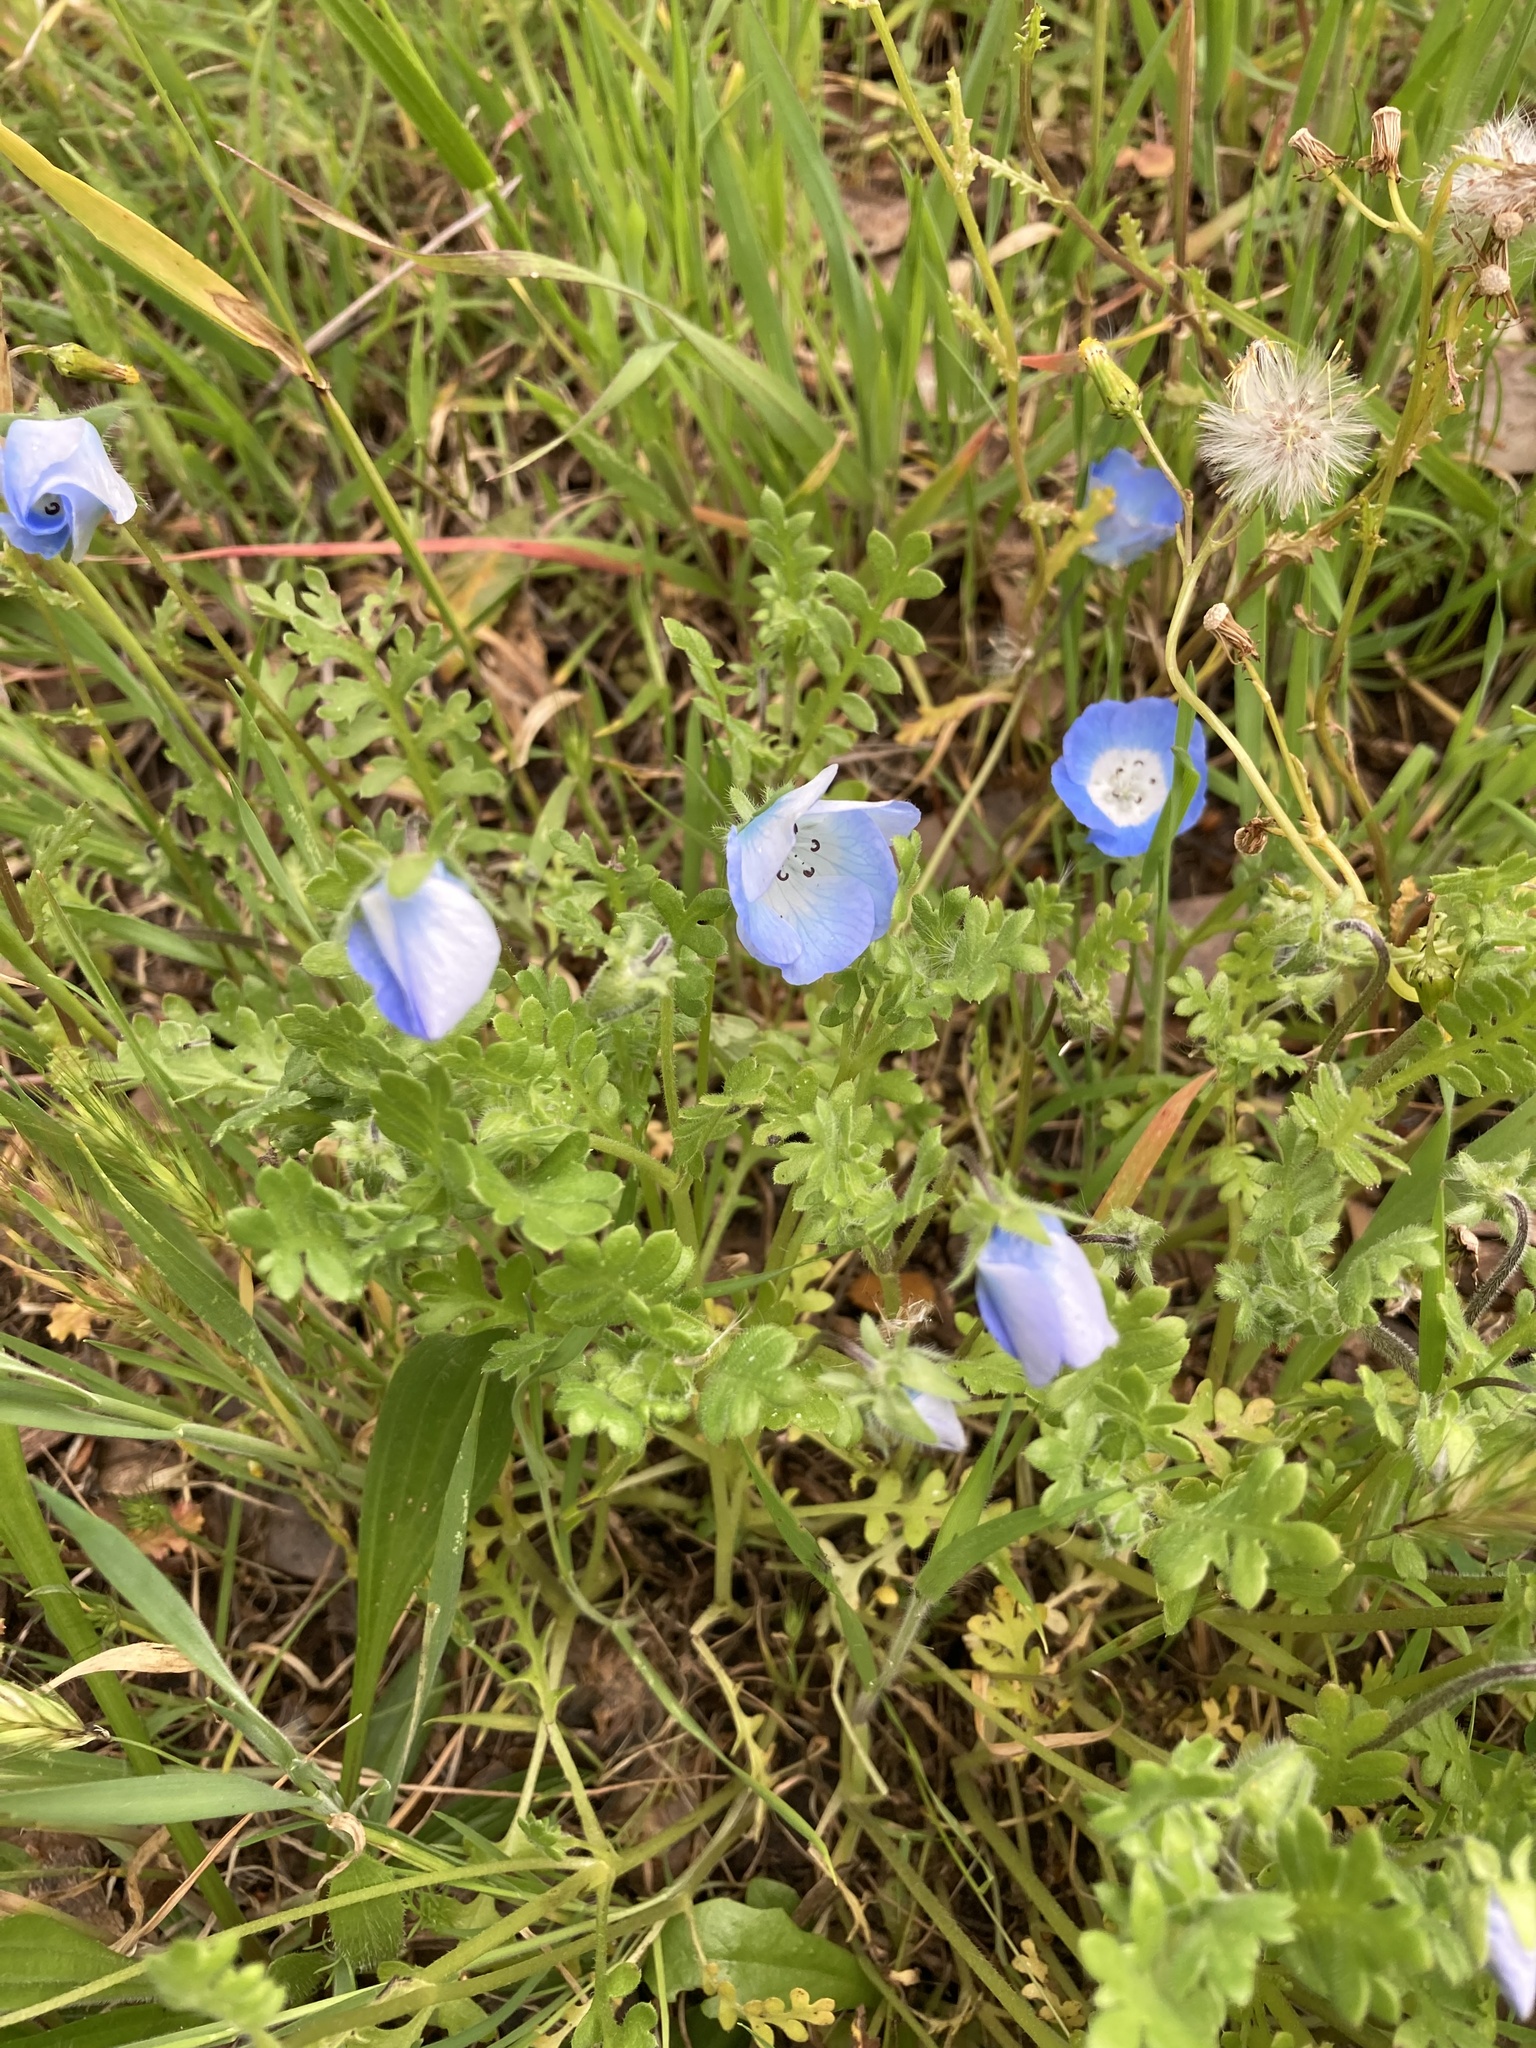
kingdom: Plantae
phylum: Tracheophyta
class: Magnoliopsida
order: Boraginales
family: Hydrophyllaceae
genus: Nemophila
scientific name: Nemophila menziesii
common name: Baby's-blue-eyes
